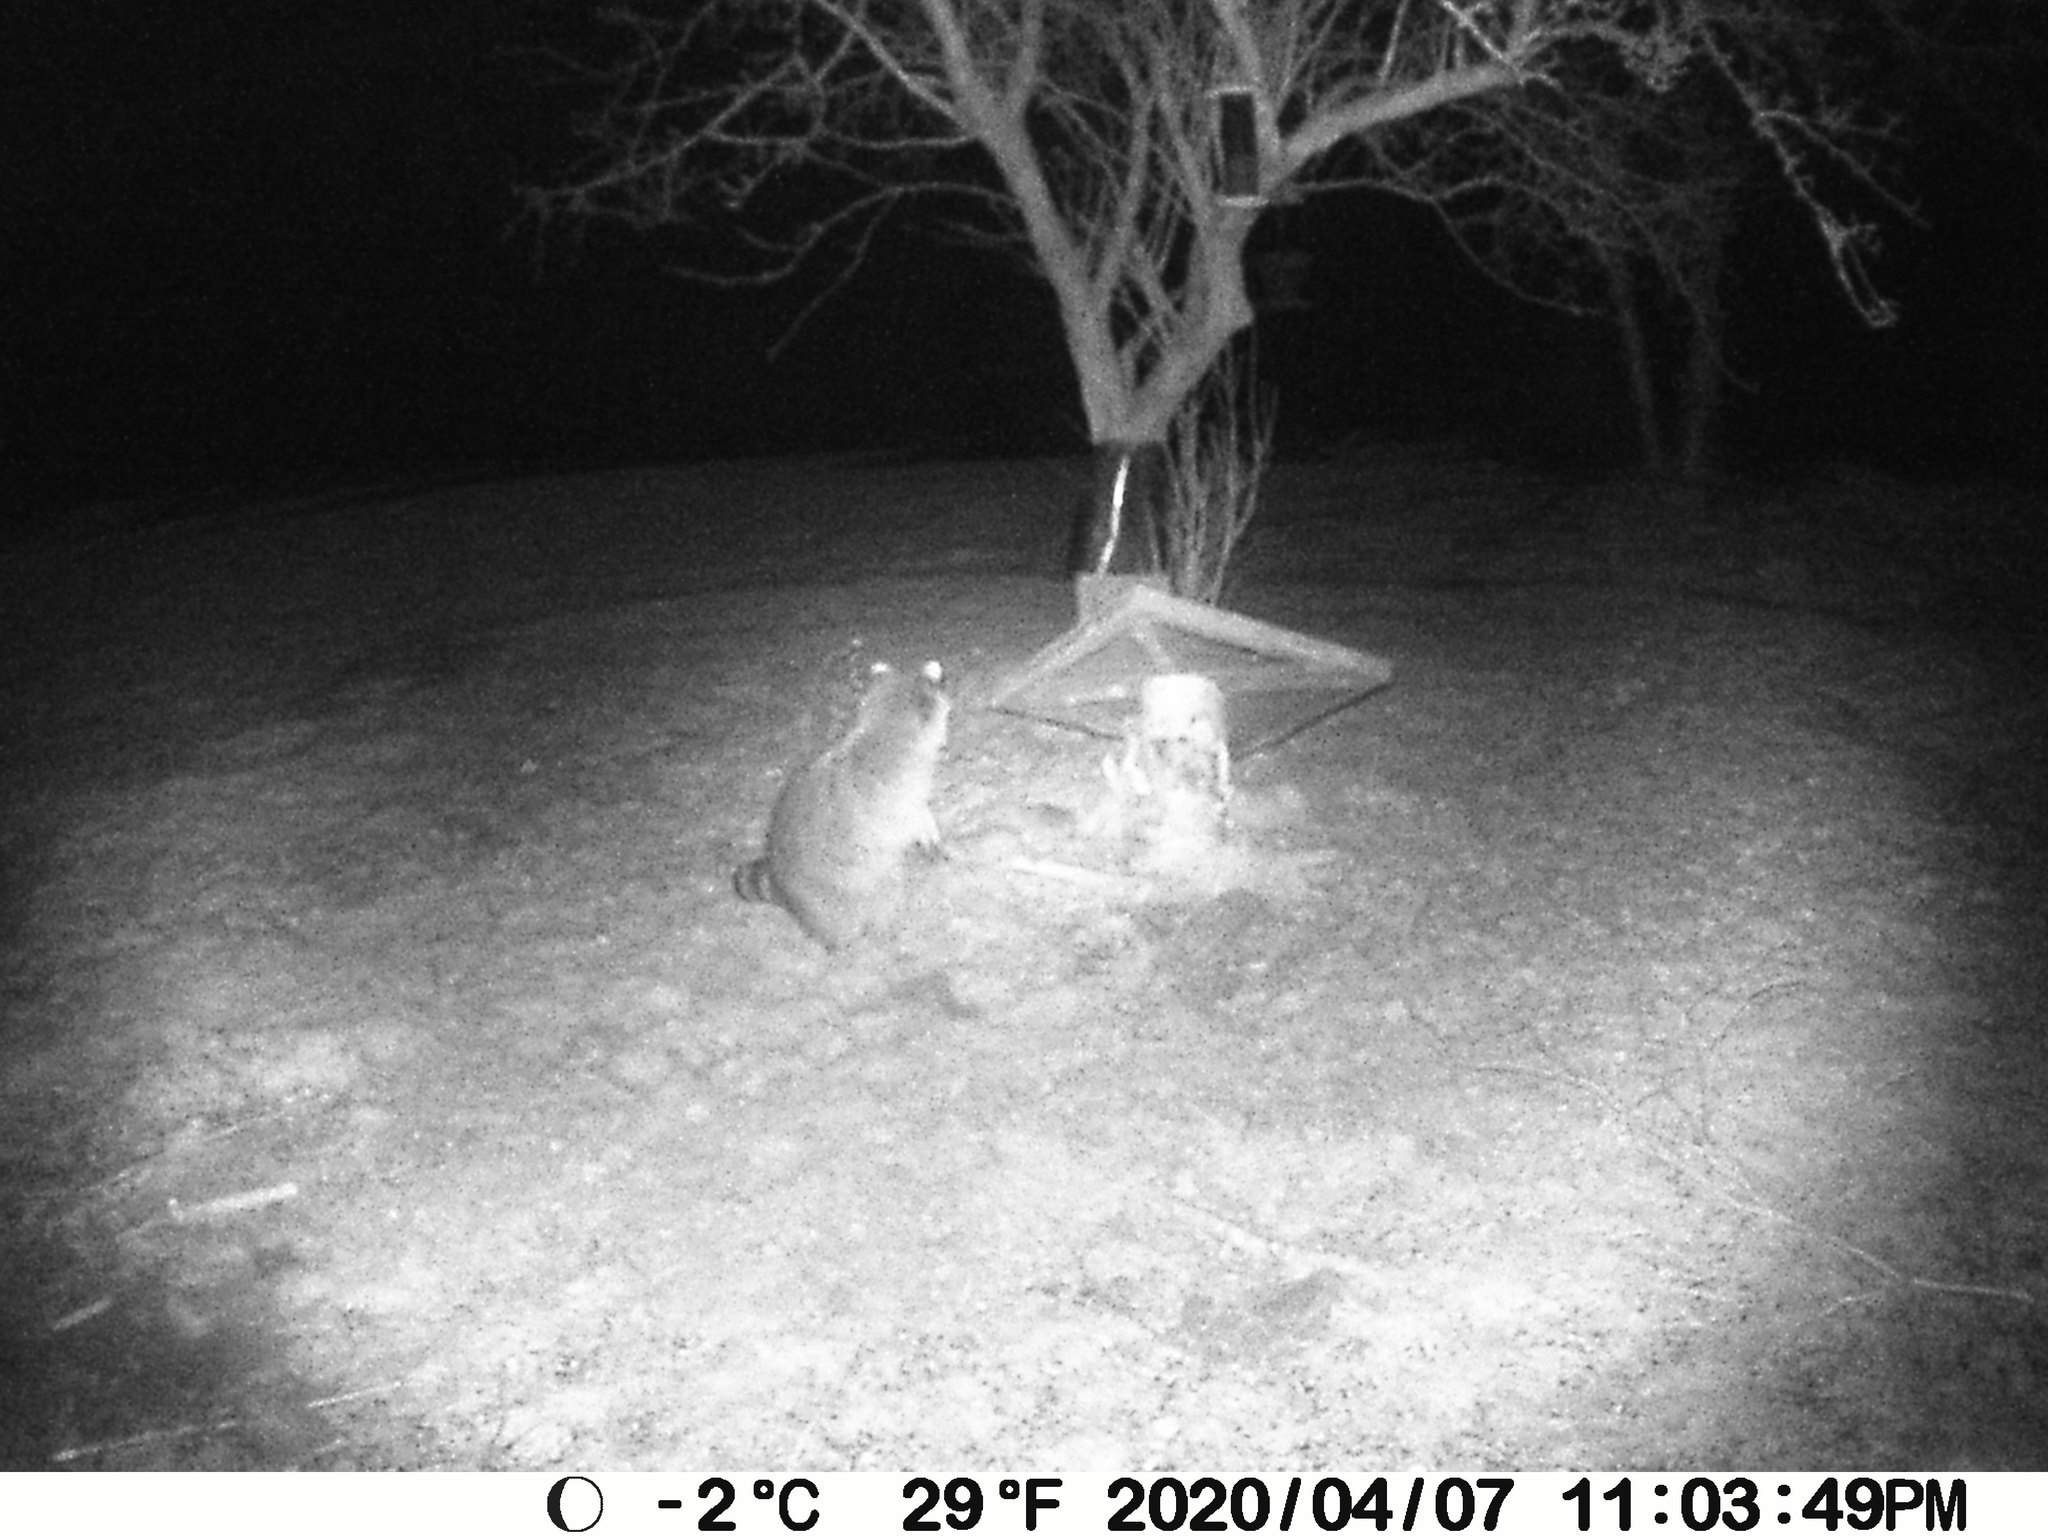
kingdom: Animalia
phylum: Chordata
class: Mammalia
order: Carnivora
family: Procyonidae
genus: Procyon
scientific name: Procyon lotor
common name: Raccoon
